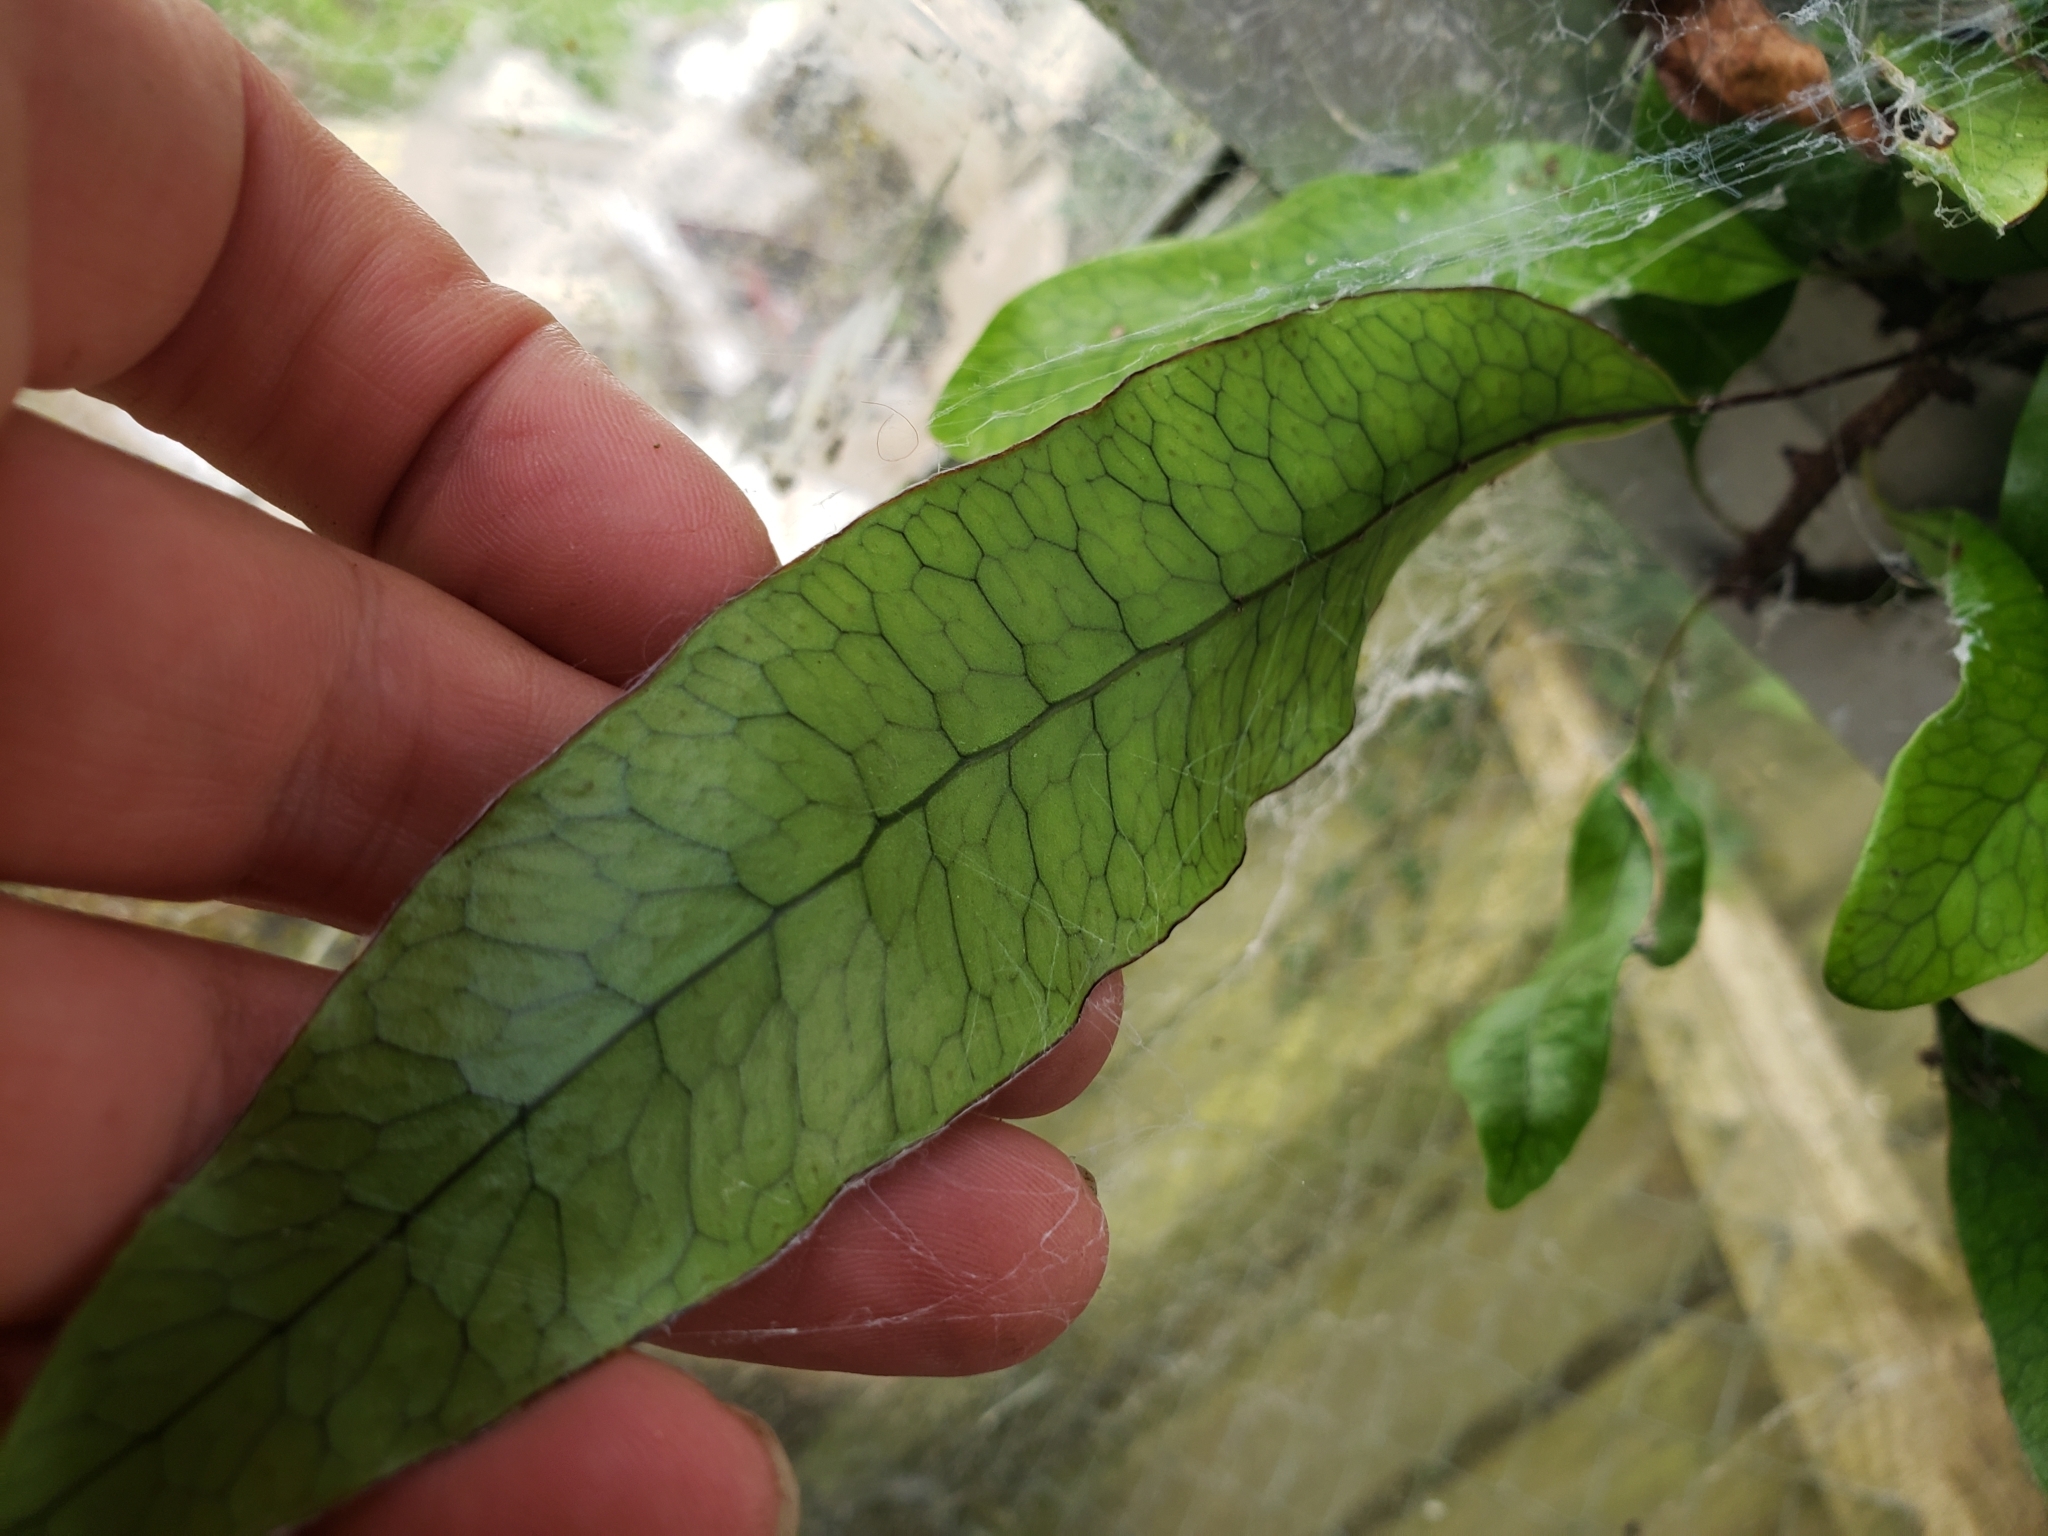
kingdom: Plantae
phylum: Tracheophyta
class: Polypodiopsida
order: Polypodiales
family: Polypodiaceae
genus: Lecanopteris
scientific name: Lecanopteris pustulata
